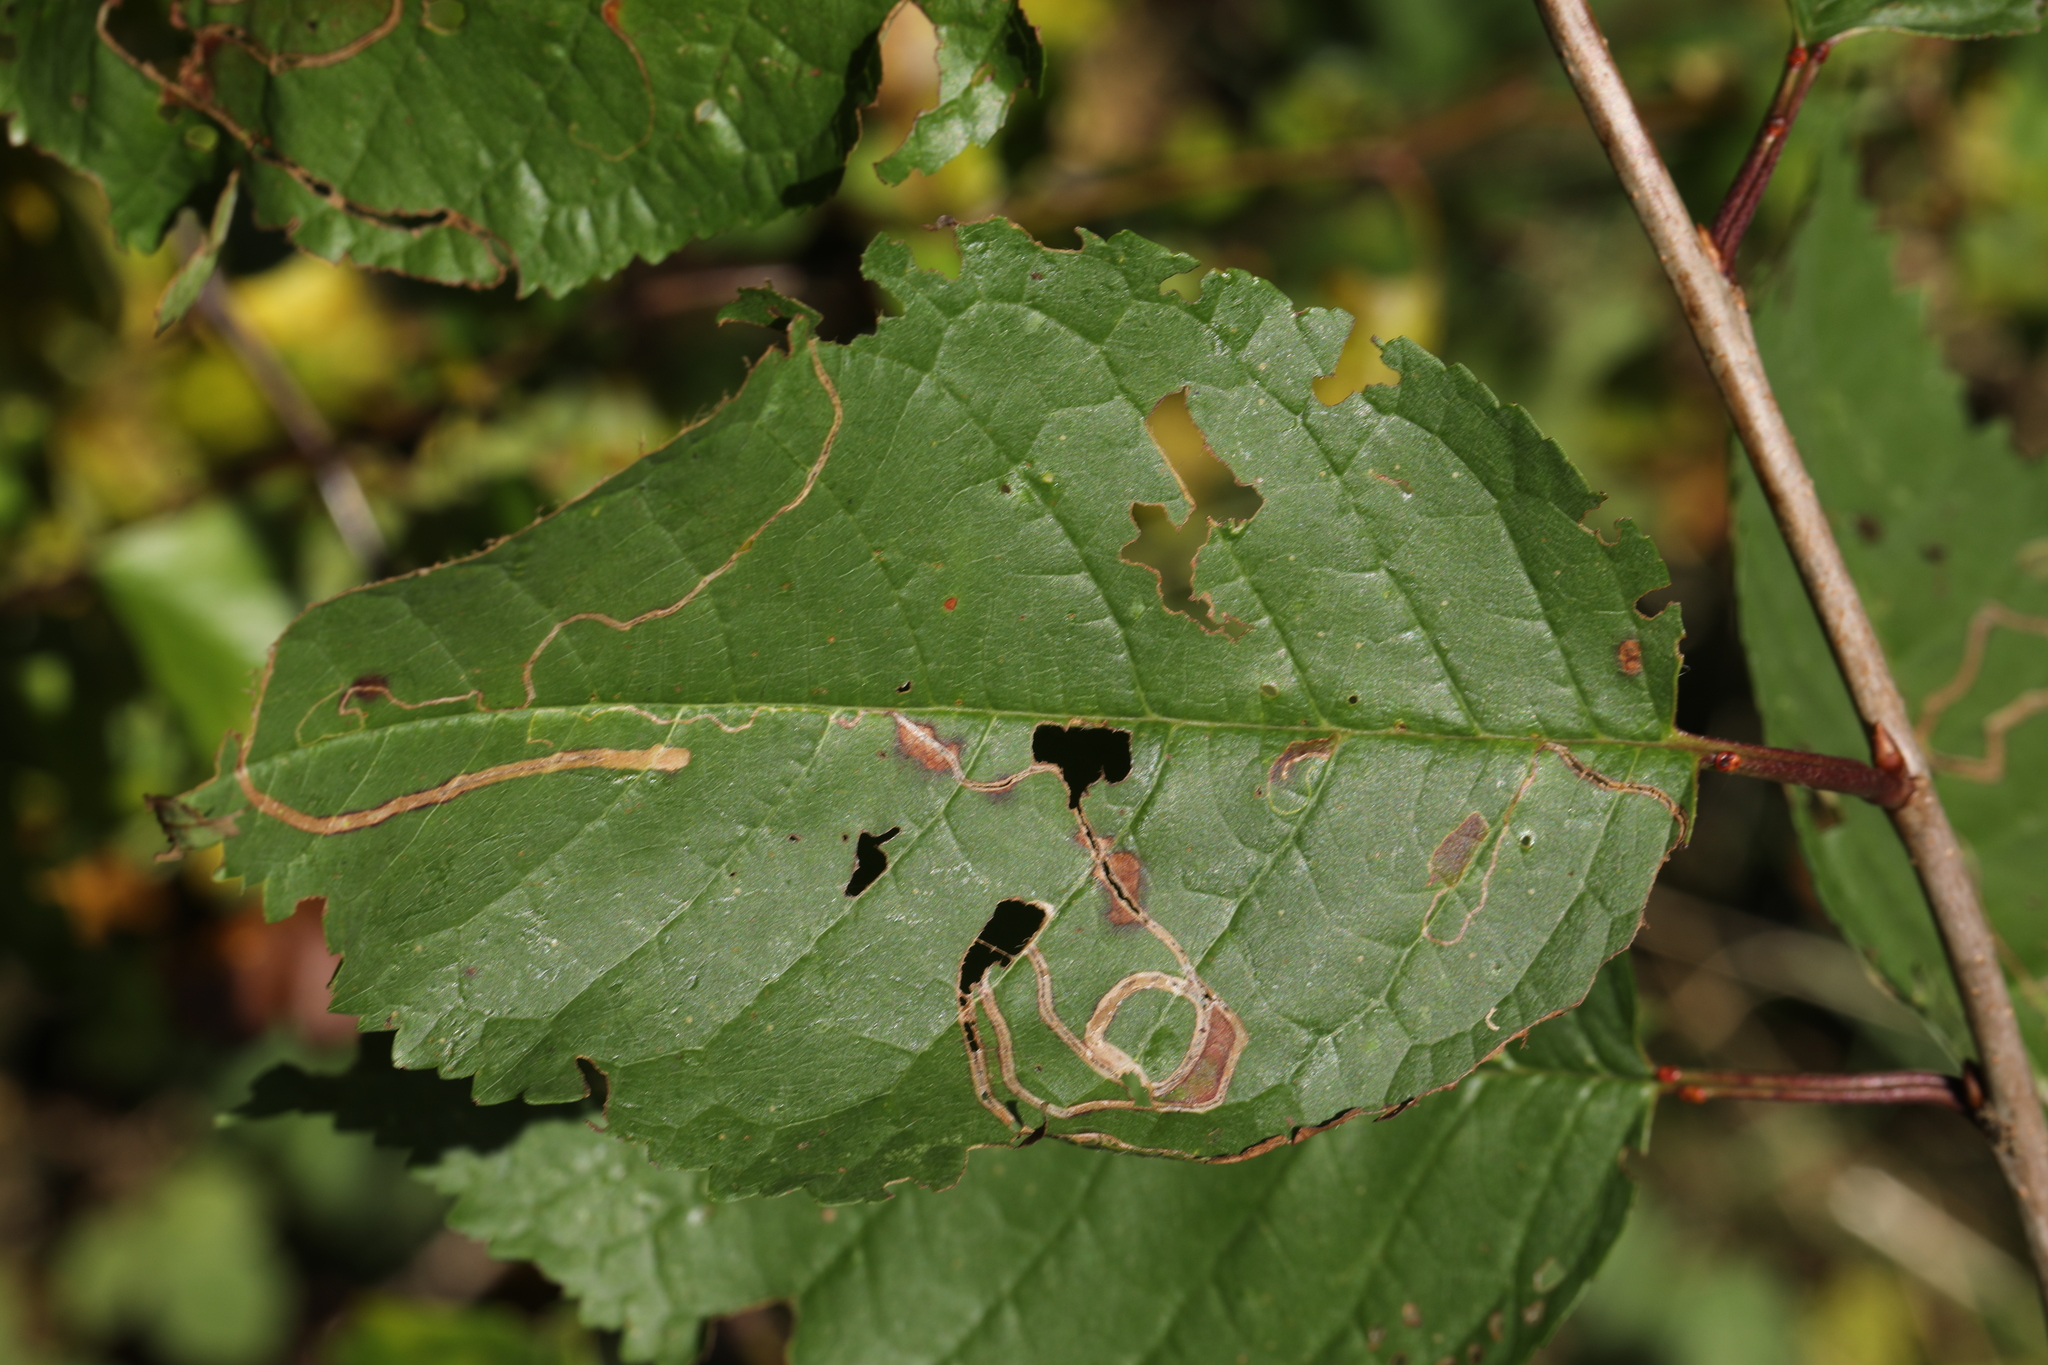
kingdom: Animalia
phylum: Arthropoda
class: Insecta
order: Lepidoptera
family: Lyonetiidae
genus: Lyonetia
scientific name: Lyonetia clerkella
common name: Apple leaf miner
